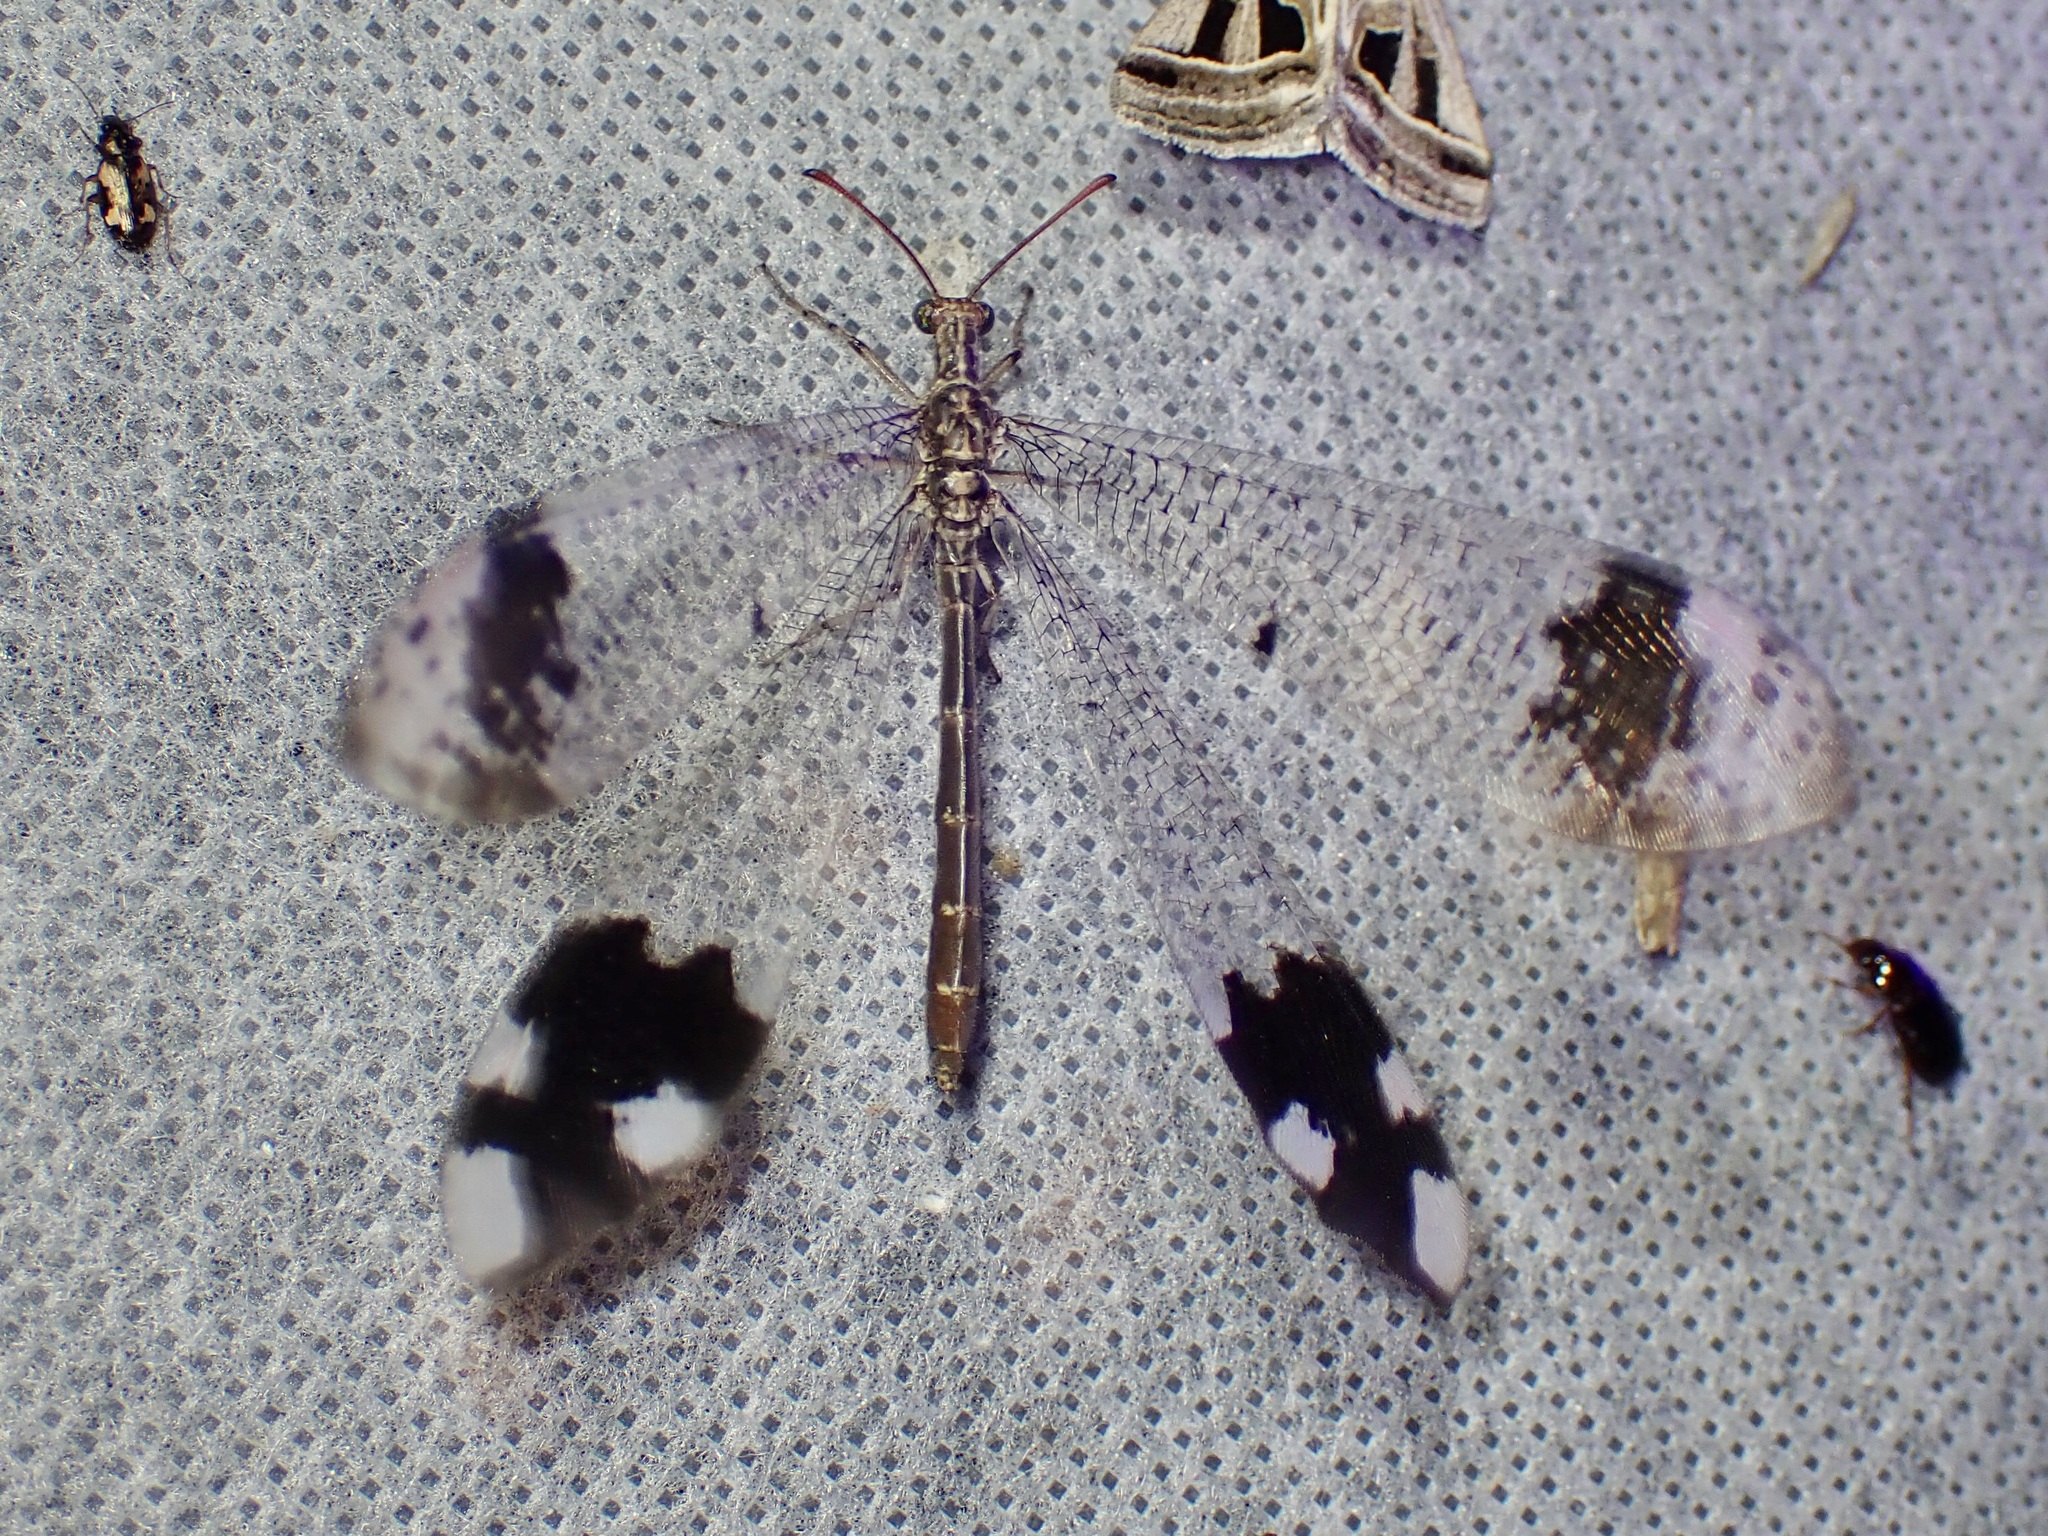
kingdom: Animalia
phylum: Arthropoda
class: Insecta
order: Neuroptera
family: Myrmeleontidae
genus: Glenurus
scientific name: Glenurus luniger
